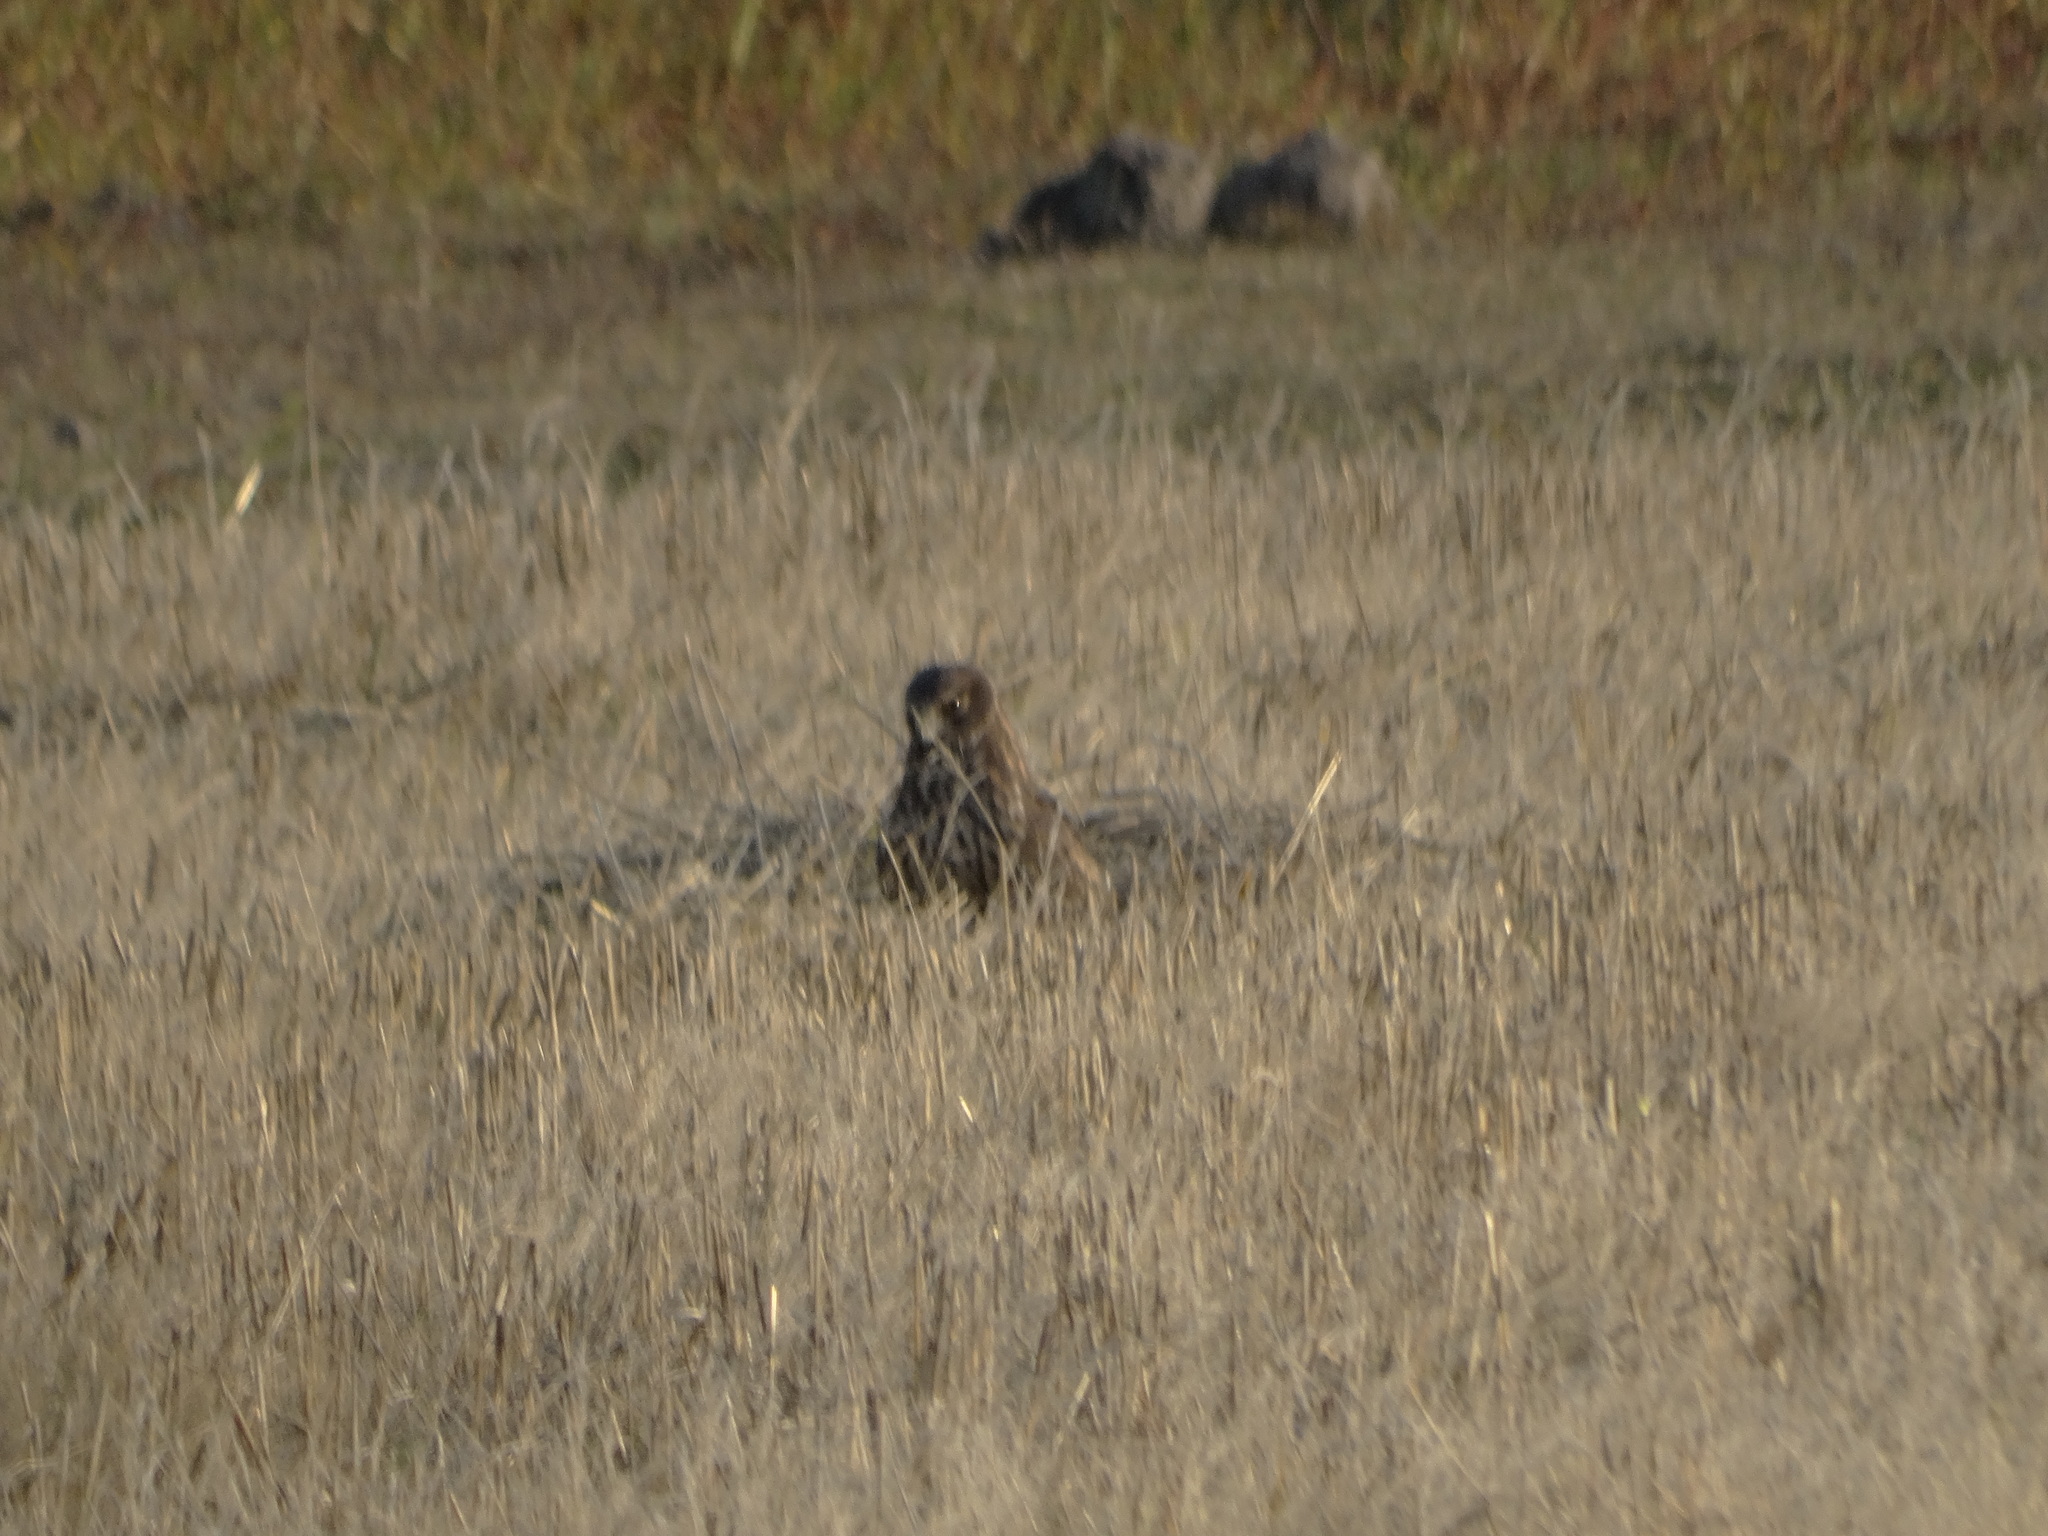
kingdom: Animalia
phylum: Chordata
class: Aves
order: Accipitriformes
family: Accipitridae
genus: Circus
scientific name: Circus cyaneus
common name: Hen harrier
